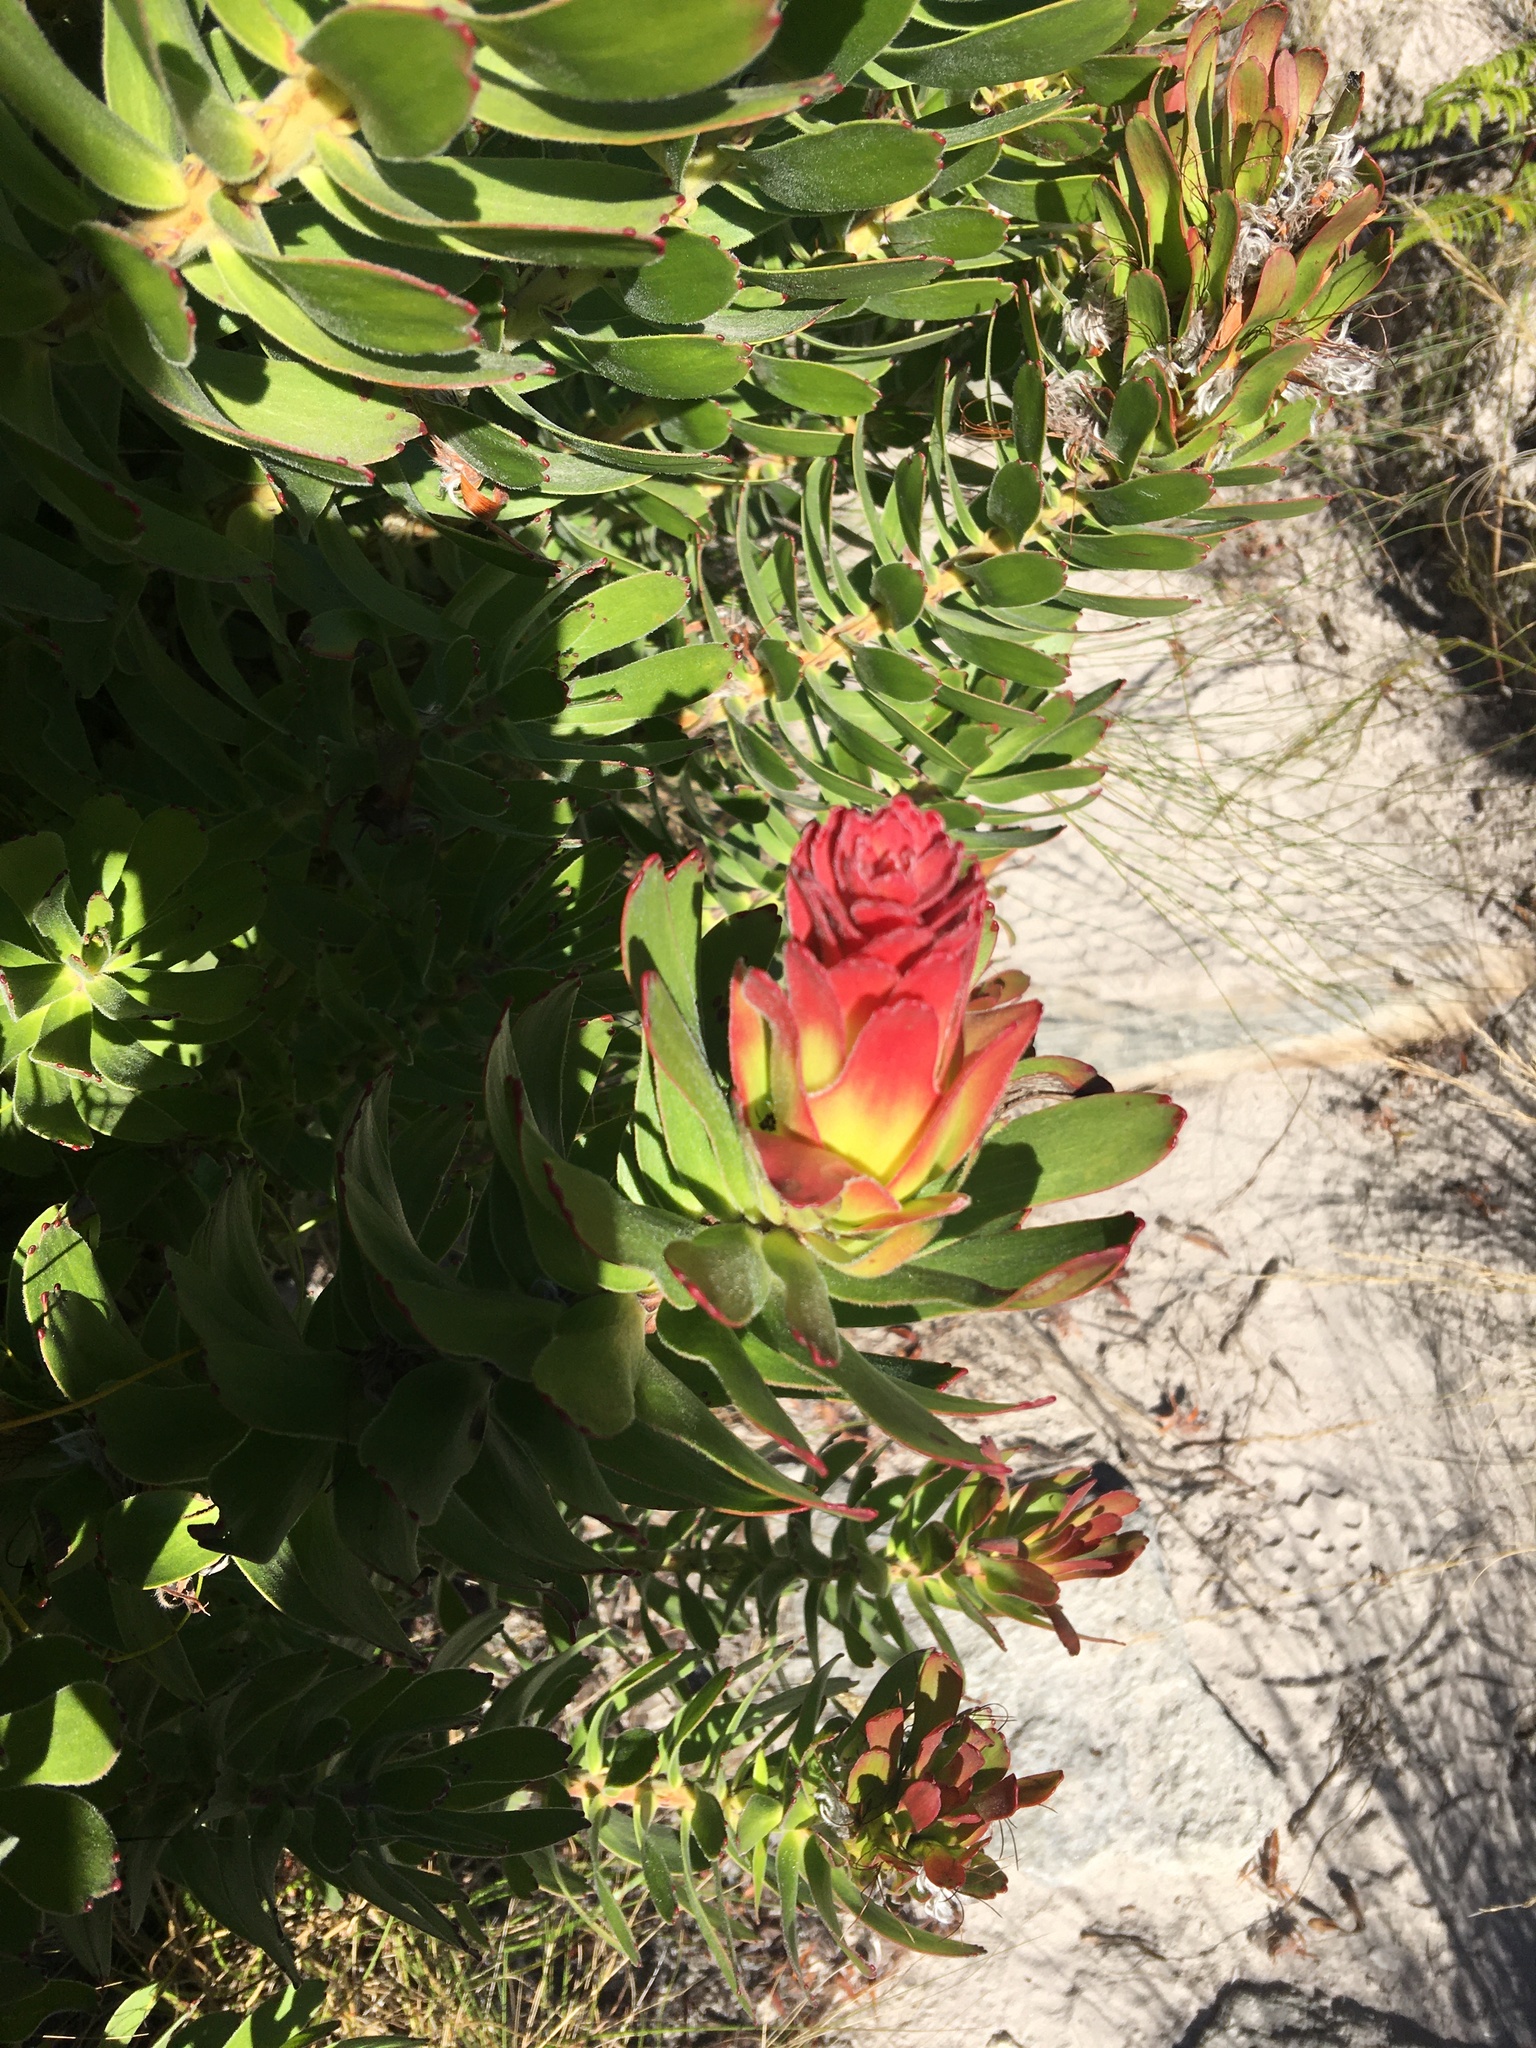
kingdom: Plantae
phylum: Tracheophyta
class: Magnoliopsida
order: Proteales
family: Proteaceae
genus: Mimetes
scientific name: Mimetes cucullatus
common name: Common pagoda
